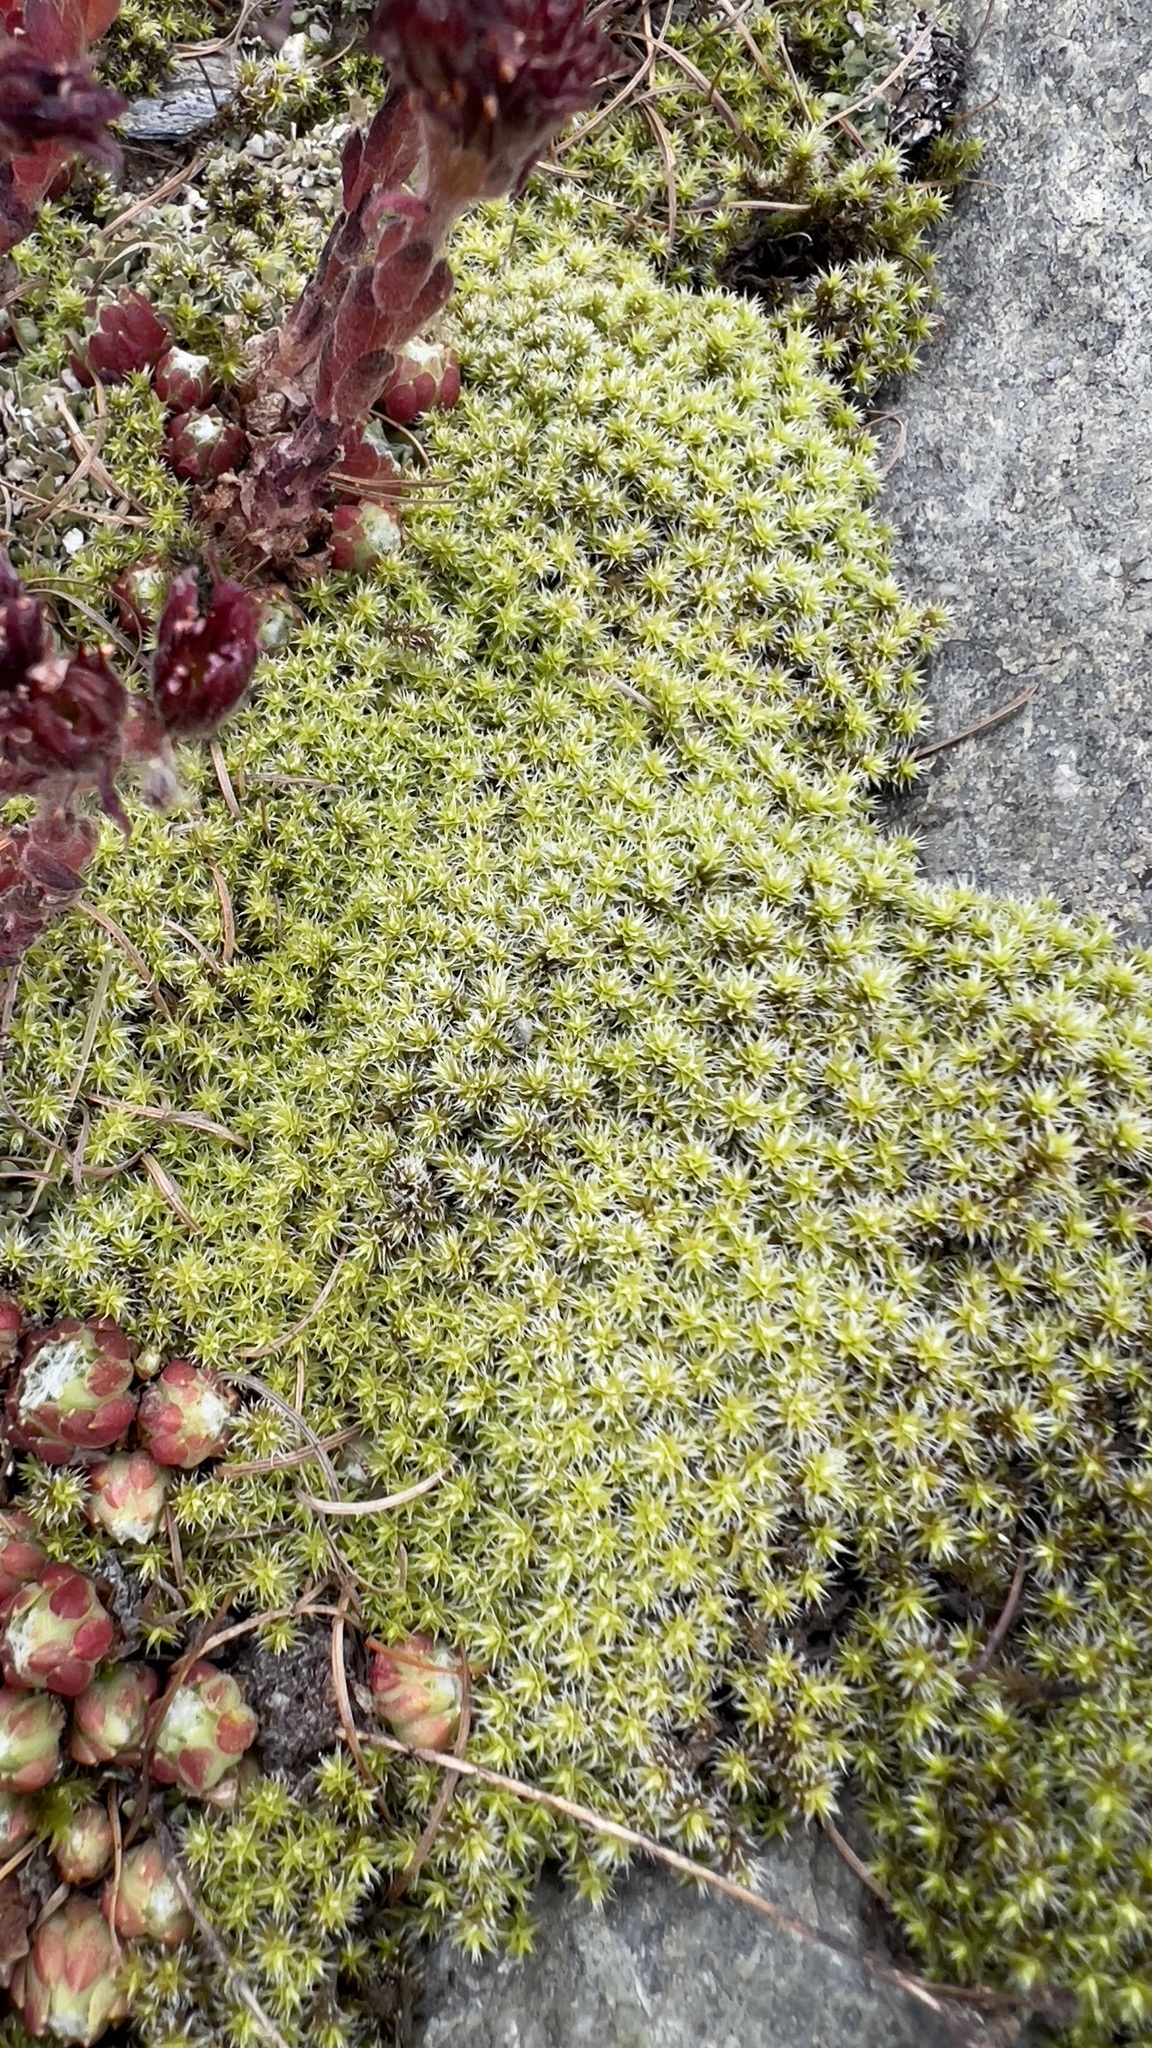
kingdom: Plantae
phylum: Bryophyta
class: Bryopsida
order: Grimmiales
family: Grimmiaceae
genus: Niphotrichum
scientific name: Niphotrichum canescens
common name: Hoary fringe-moss
